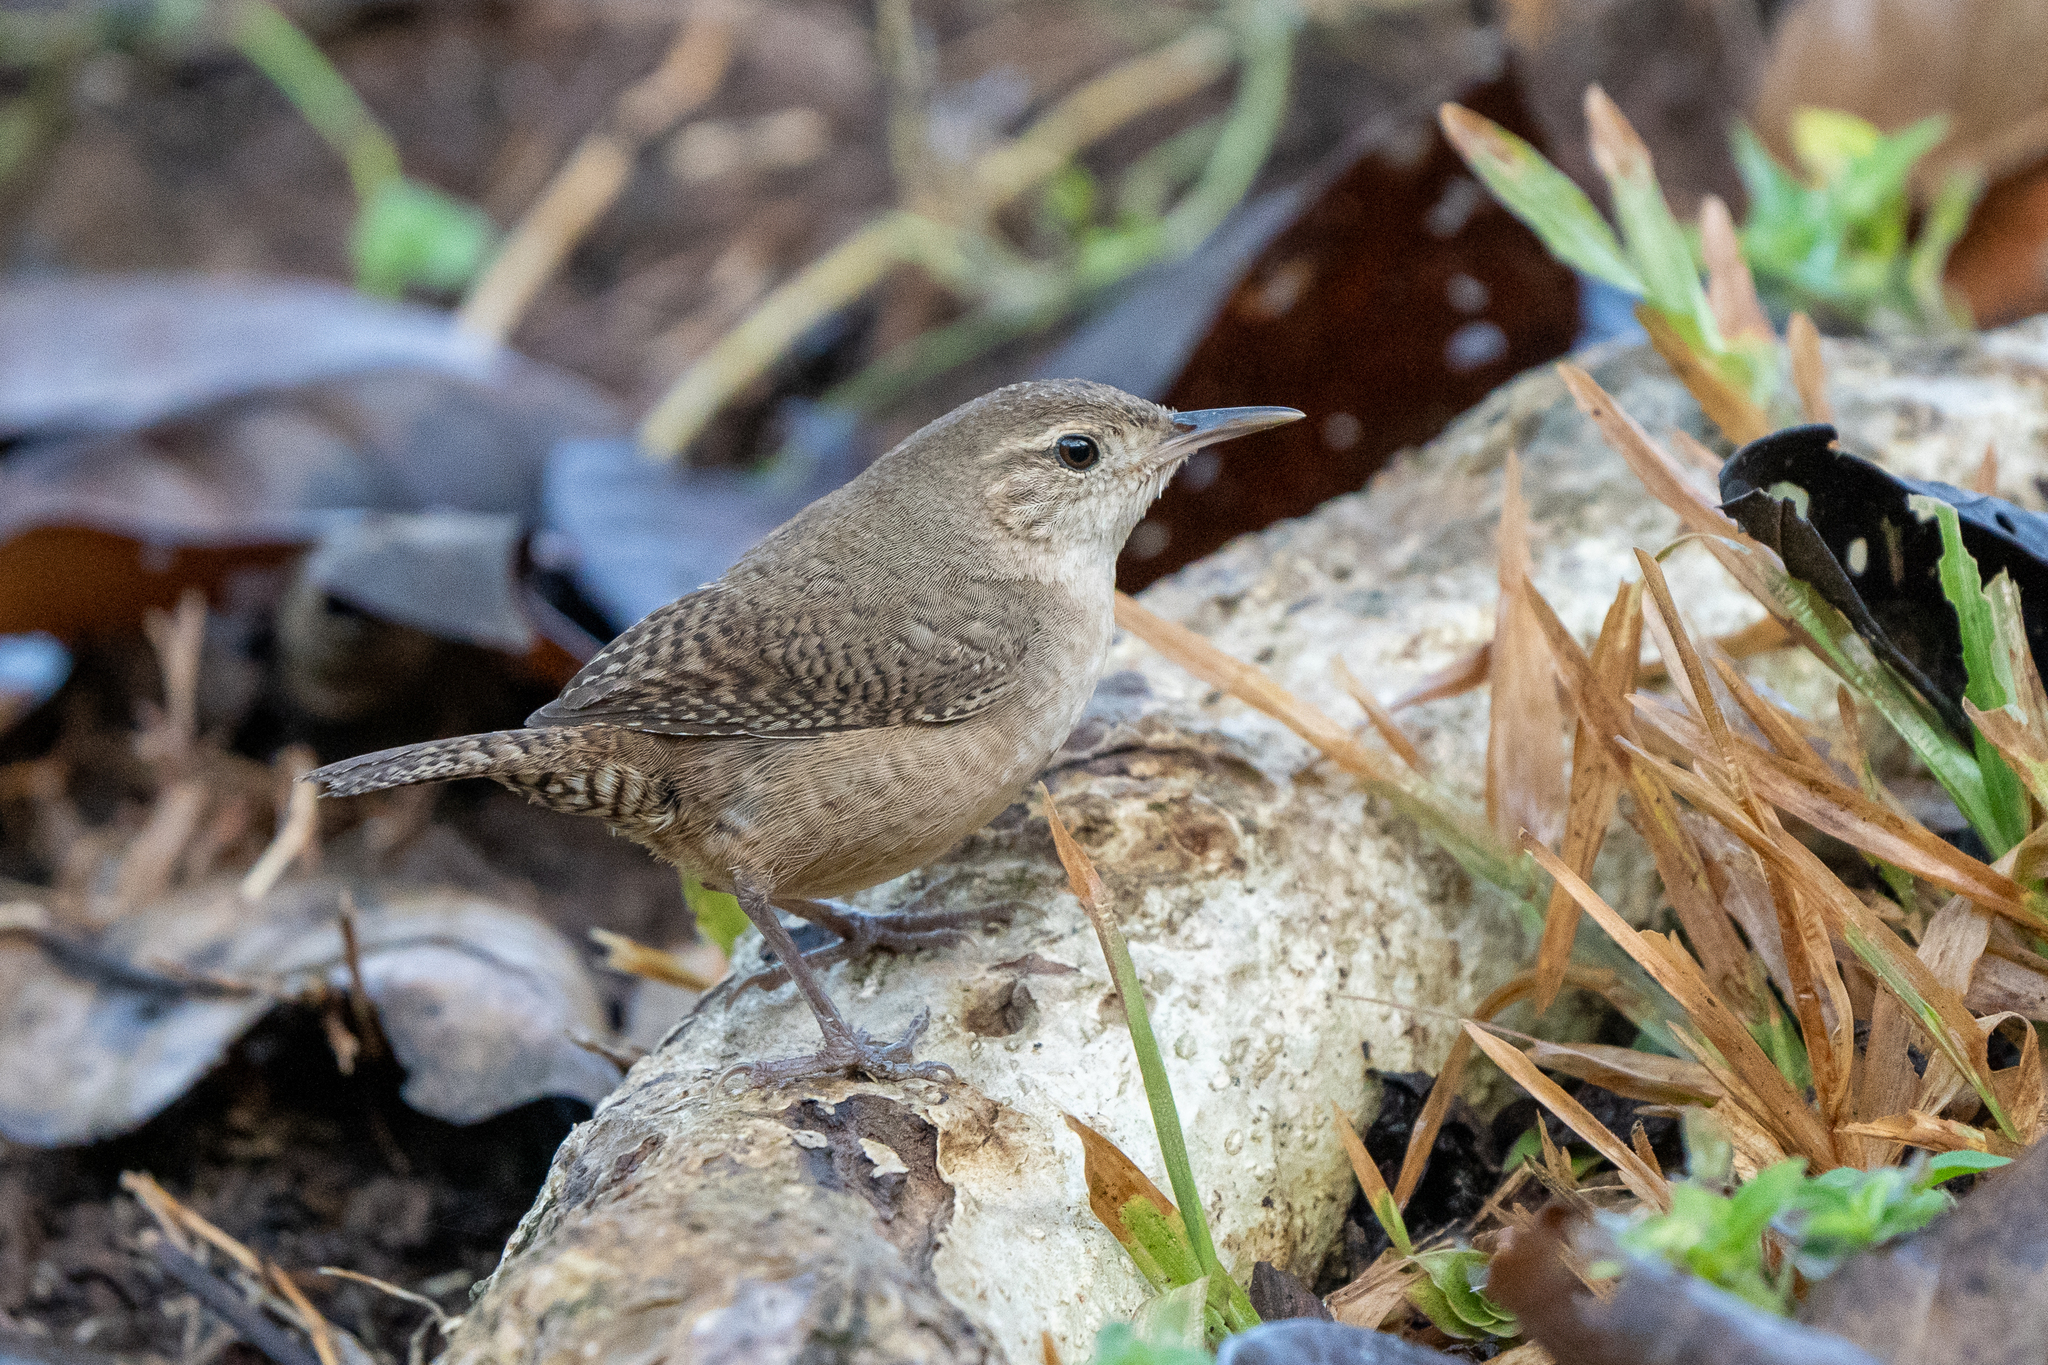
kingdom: Animalia
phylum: Chordata
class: Aves
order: Passeriformes
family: Troglodytidae
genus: Troglodytes
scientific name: Troglodytes aedon
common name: House wren
